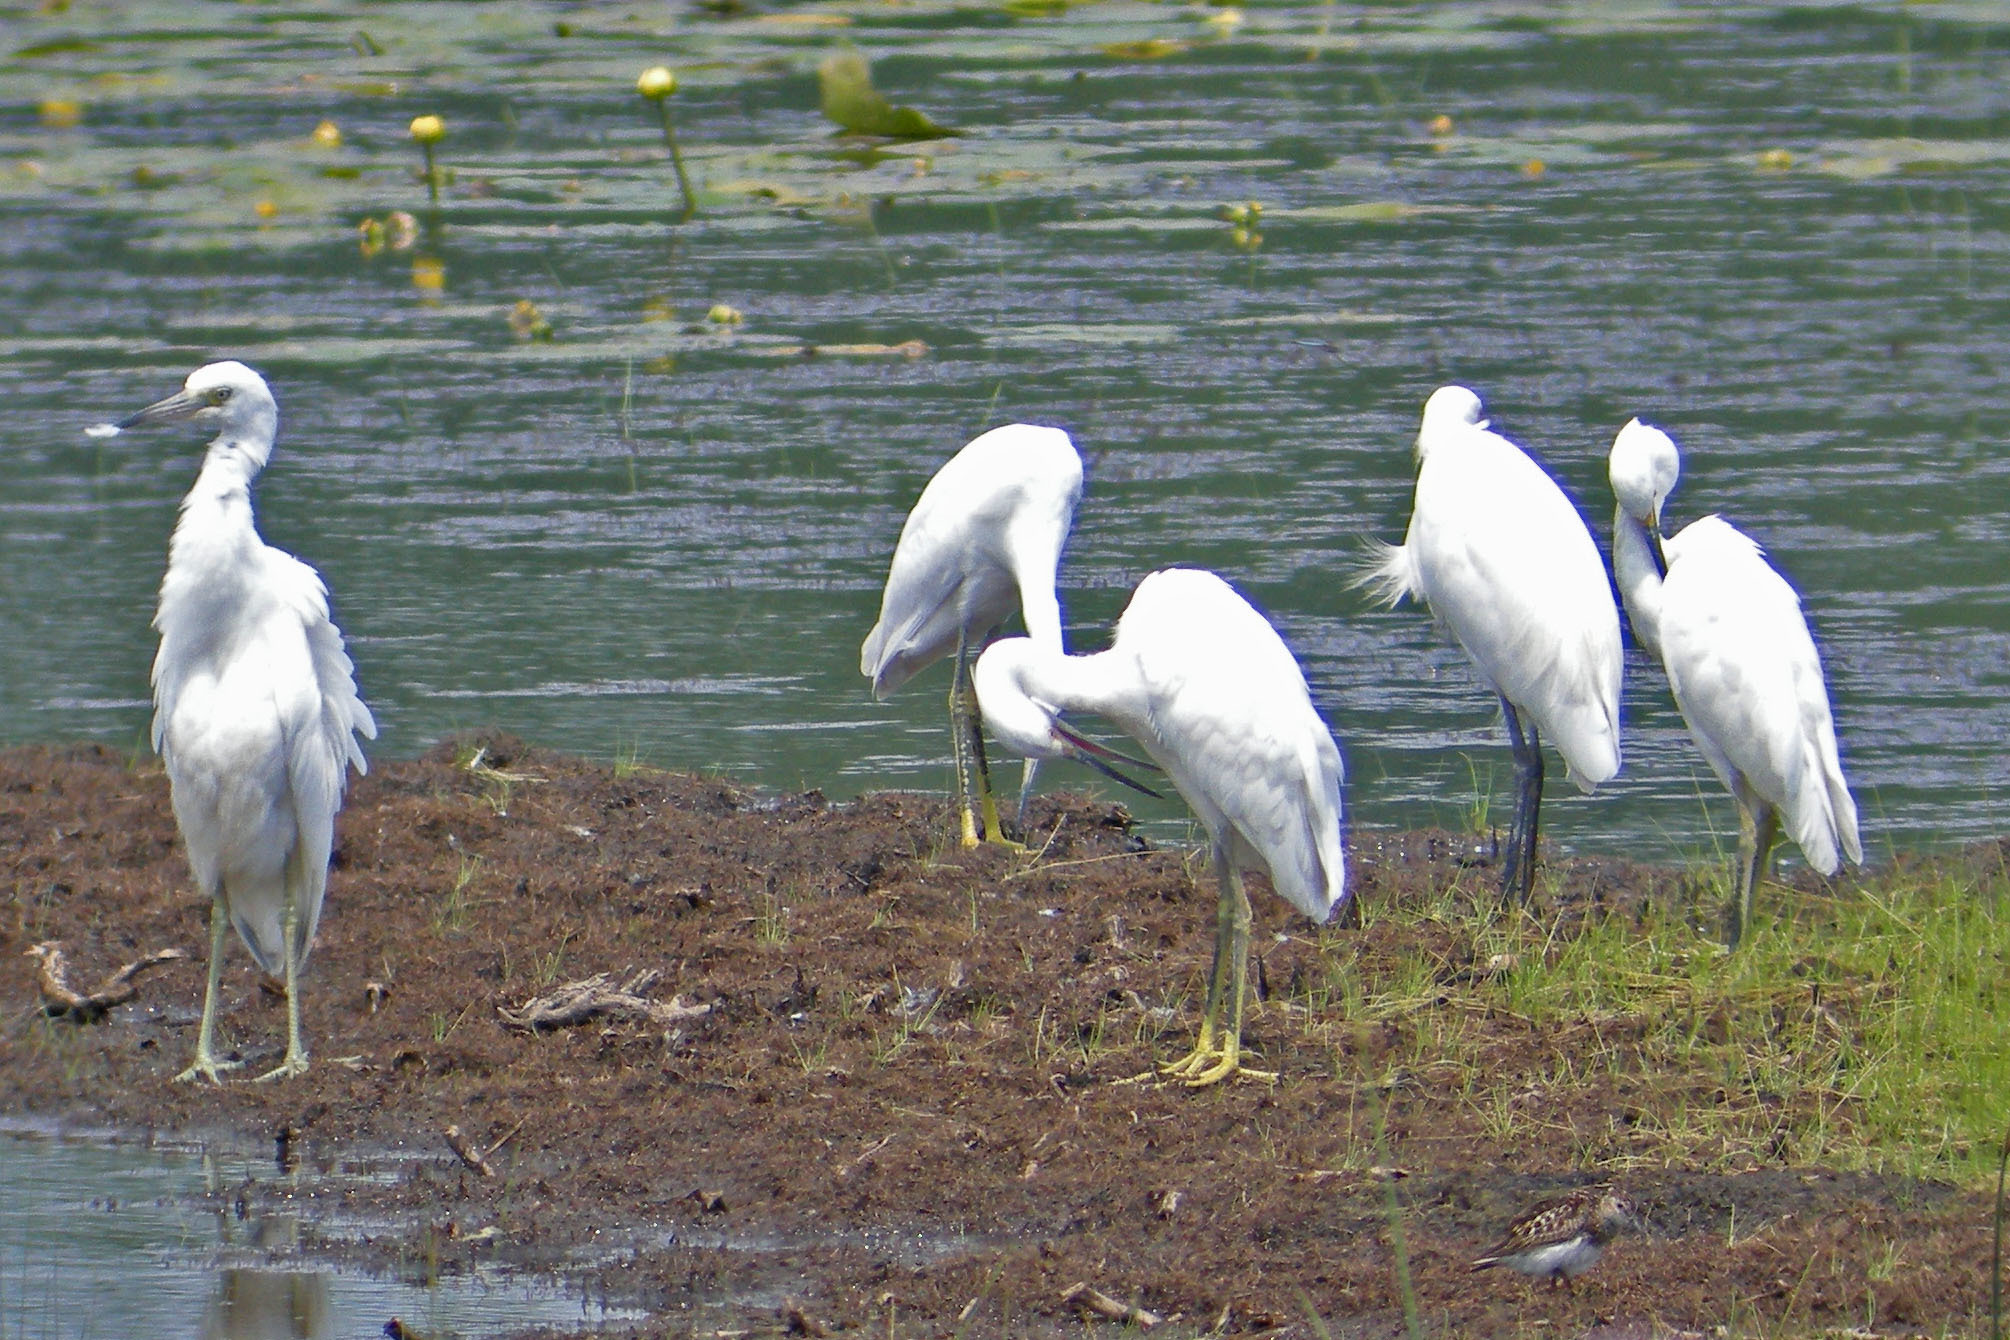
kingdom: Animalia
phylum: Chordata
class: Aves
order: Pelecaniformes
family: Ardeidae
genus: Egretta
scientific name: Egretta thula
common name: Snowy egret
